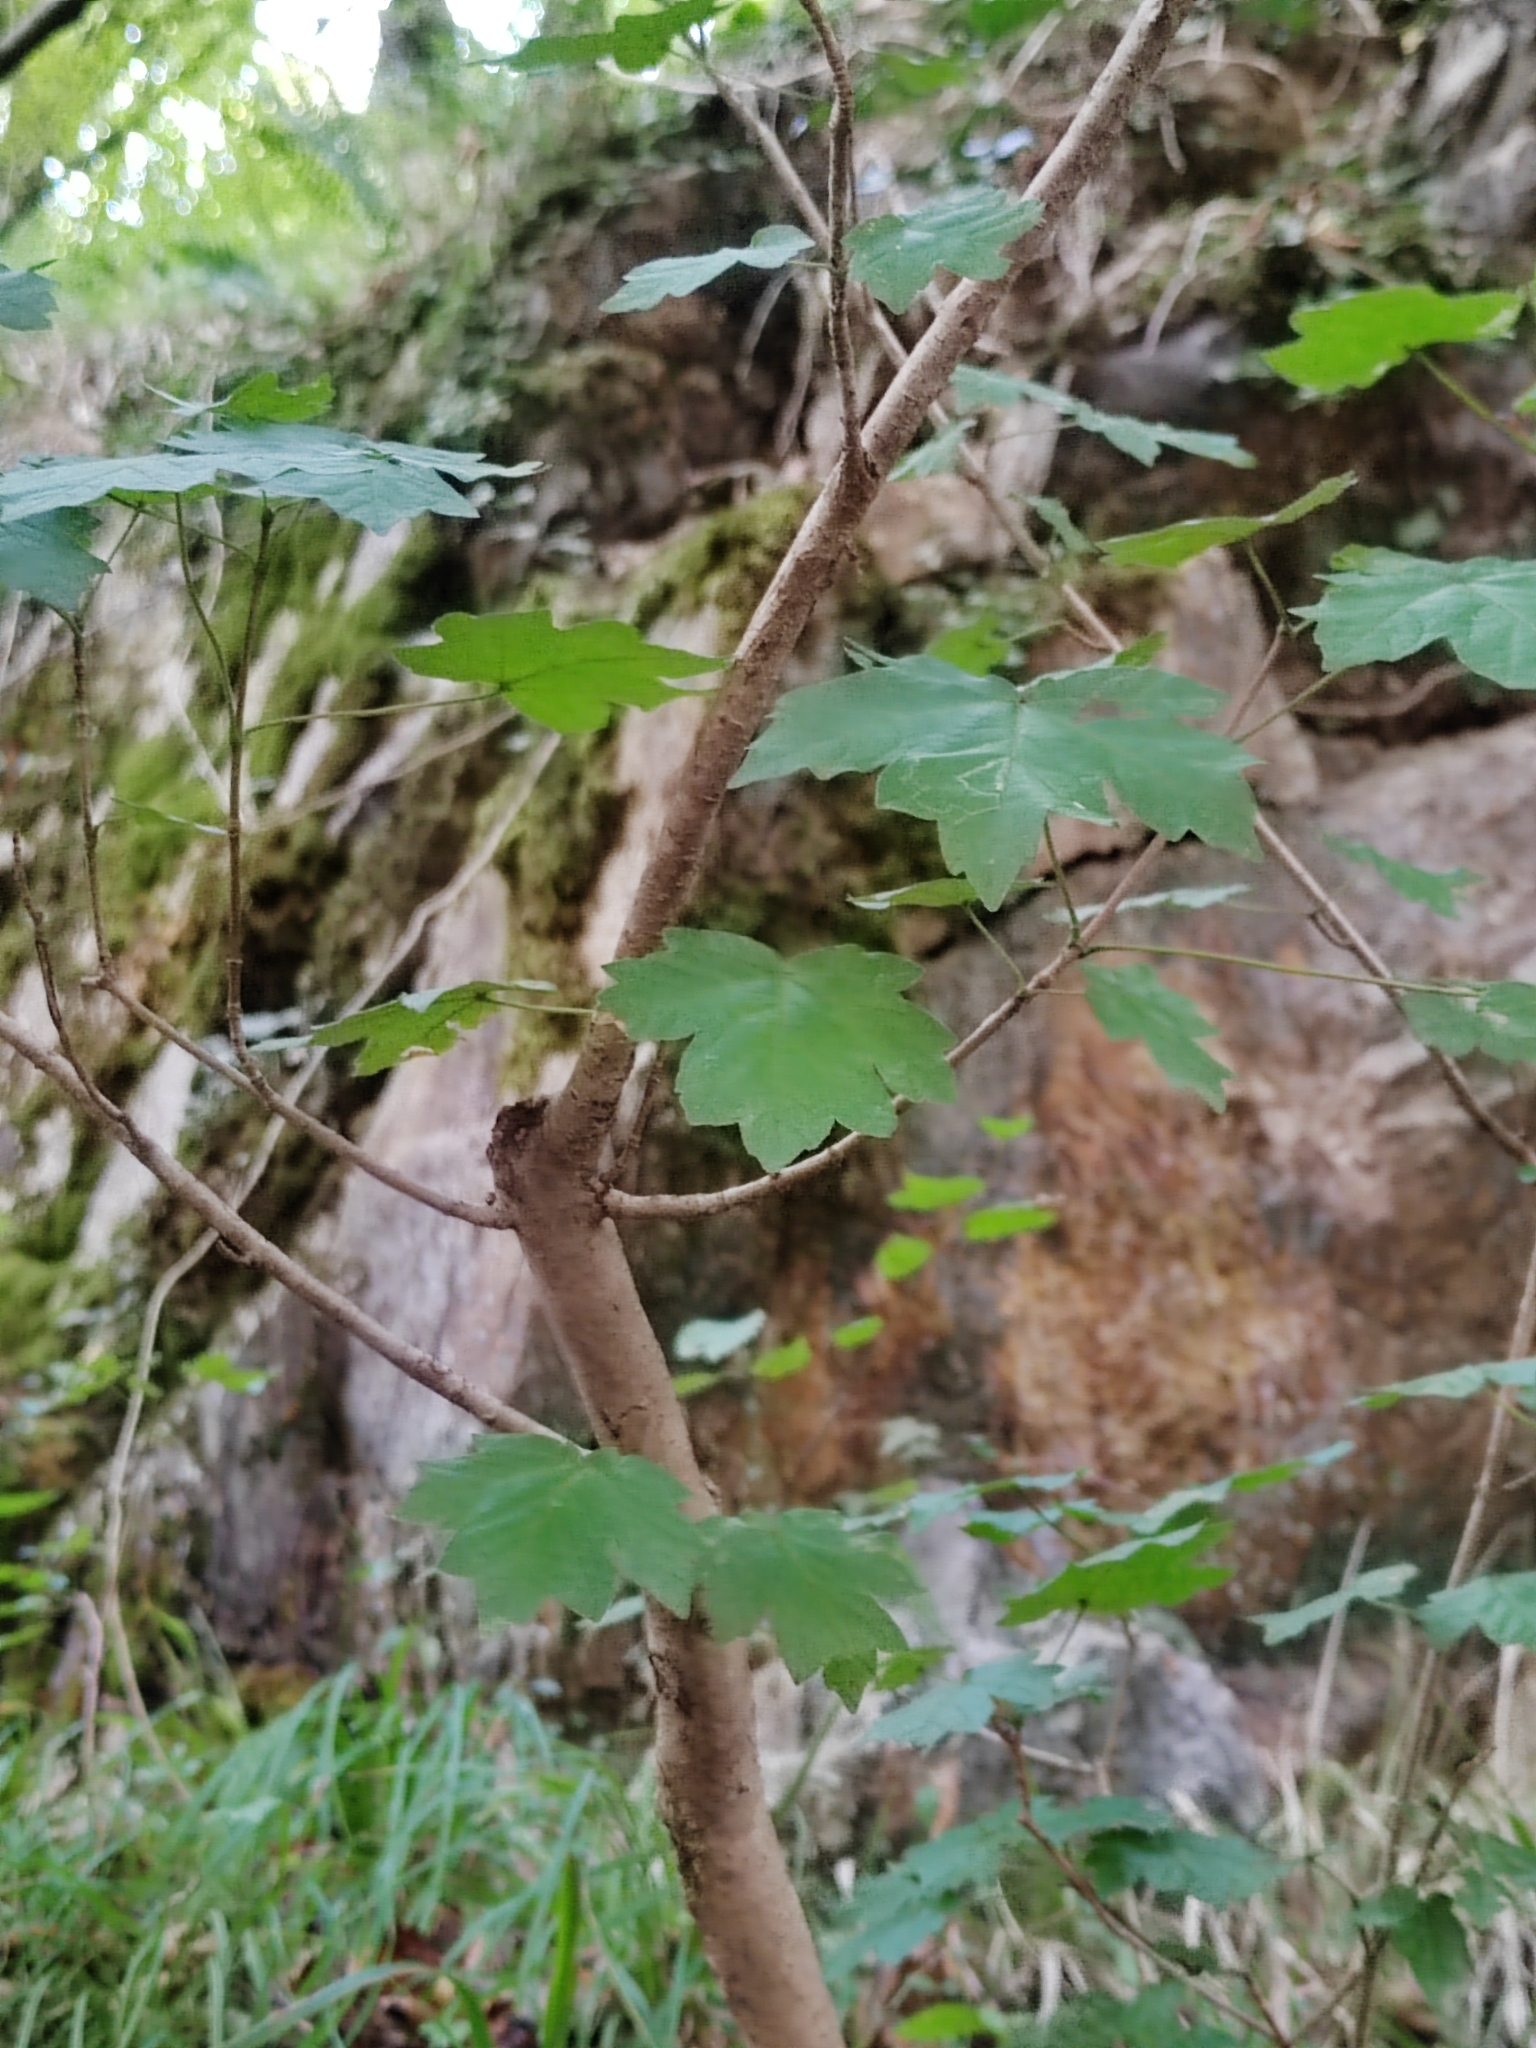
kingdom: Plantae
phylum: Tracheophyta
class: Magnoliopsida
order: Sapindales
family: Sapindaceae
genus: Acer
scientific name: Acer campestre
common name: Field maple
